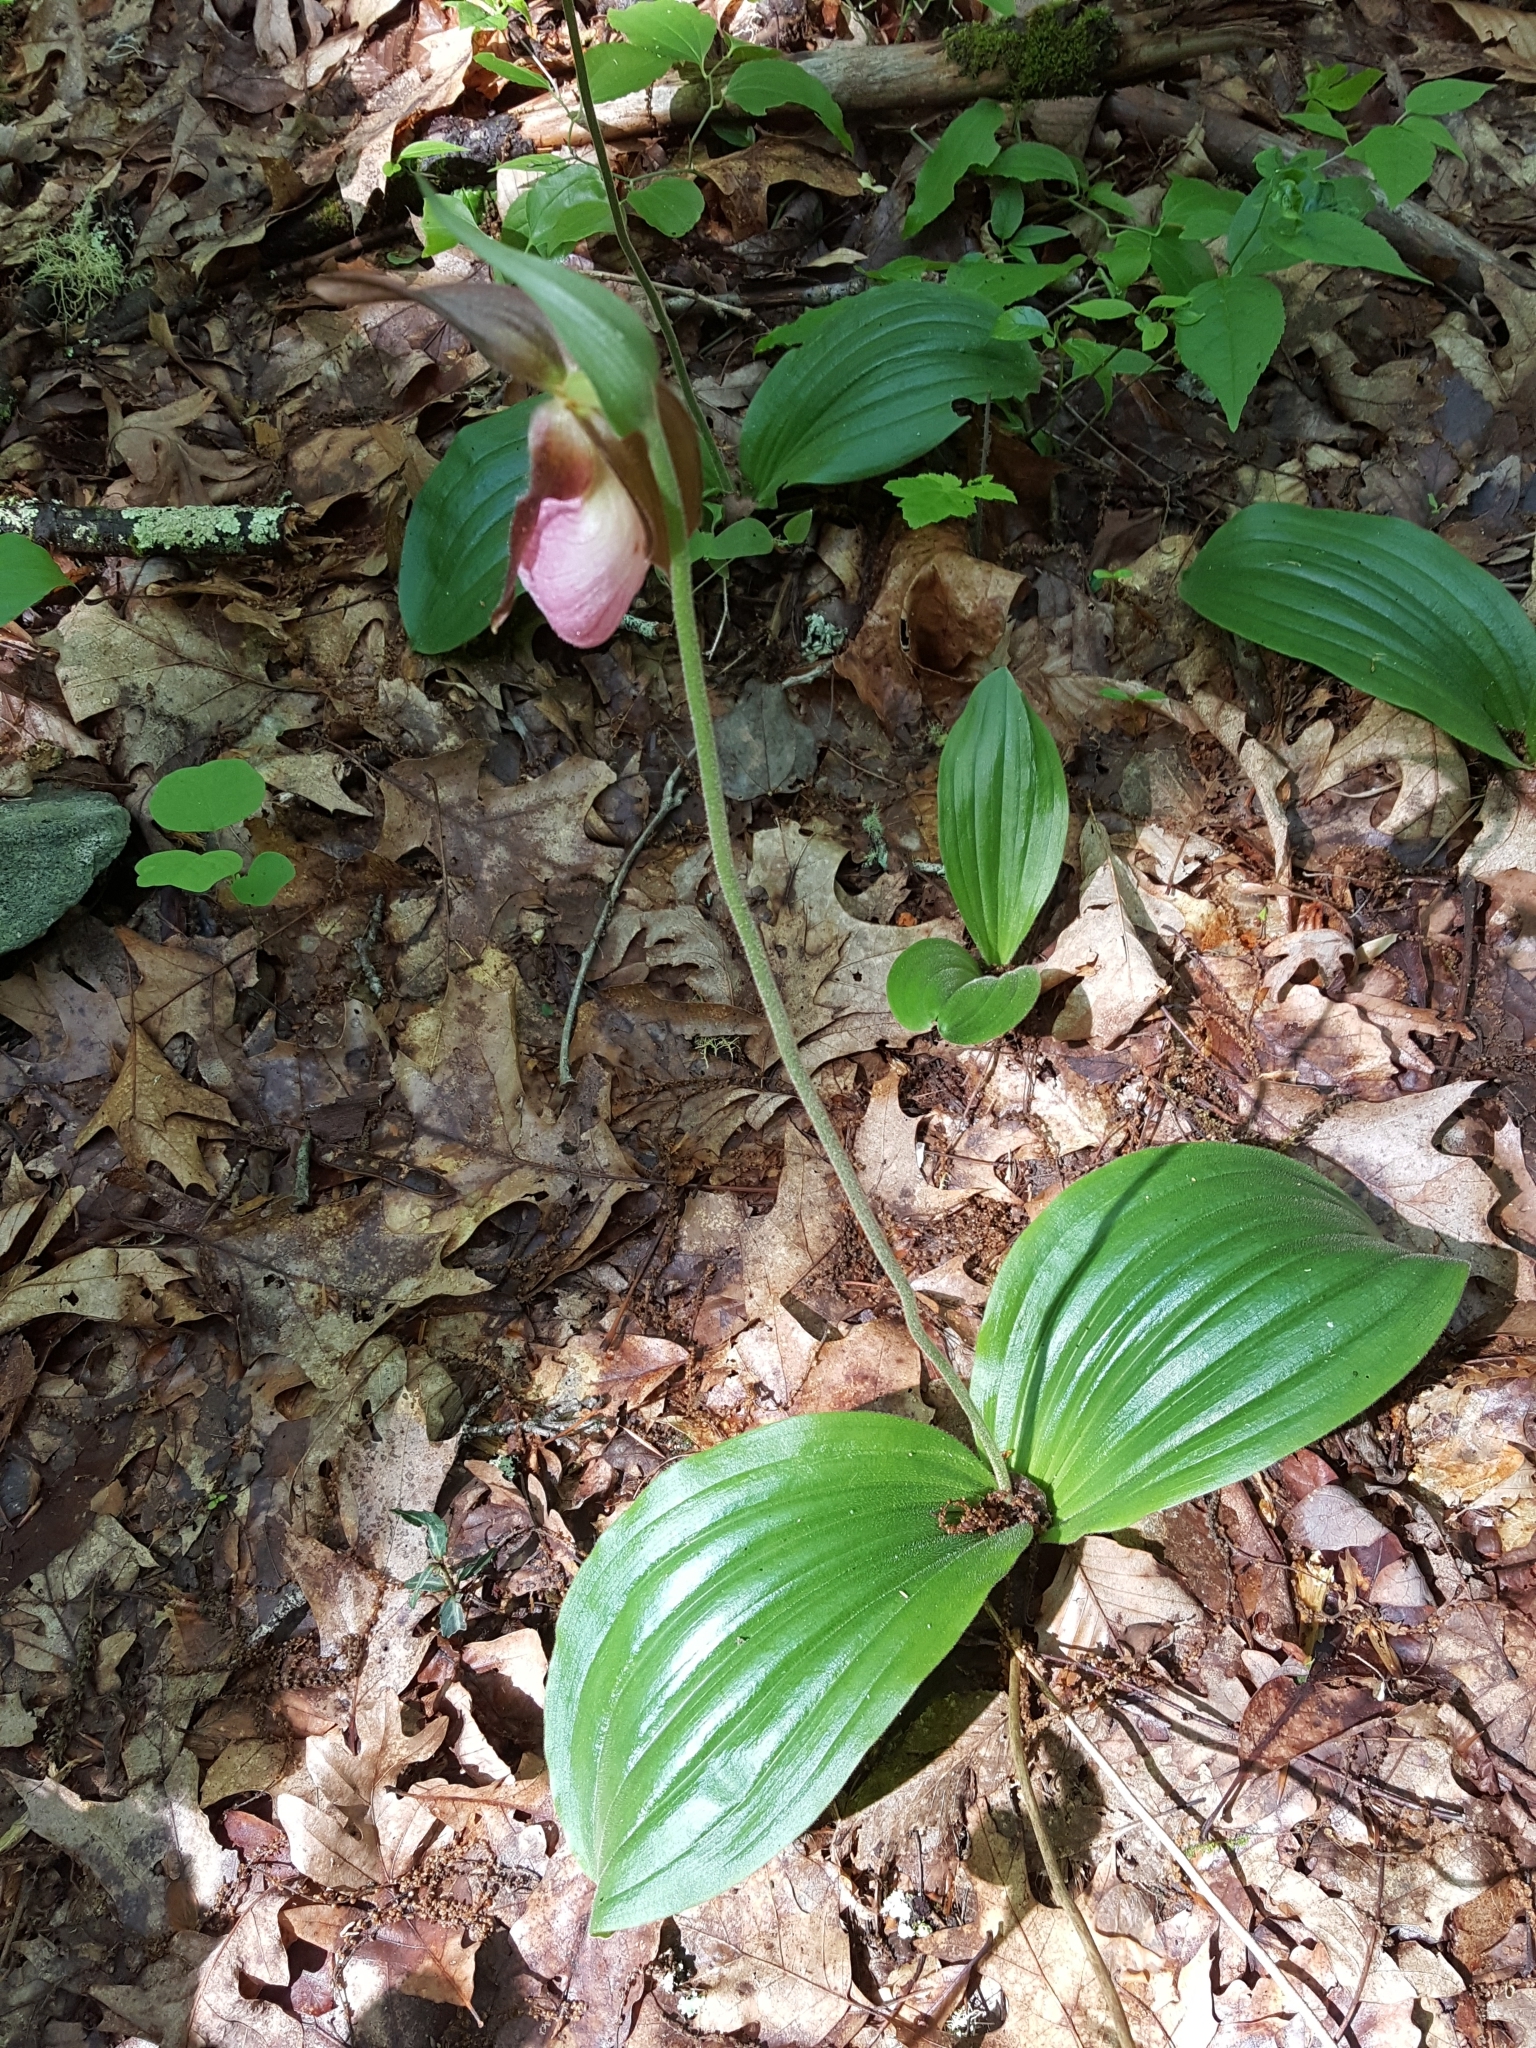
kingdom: Plantae
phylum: Tracheophyta
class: Liliopsida
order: Asparagales
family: Orchidaceae
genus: Cypripedium
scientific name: Cypripedium acaule
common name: Pink lady's-slipper
